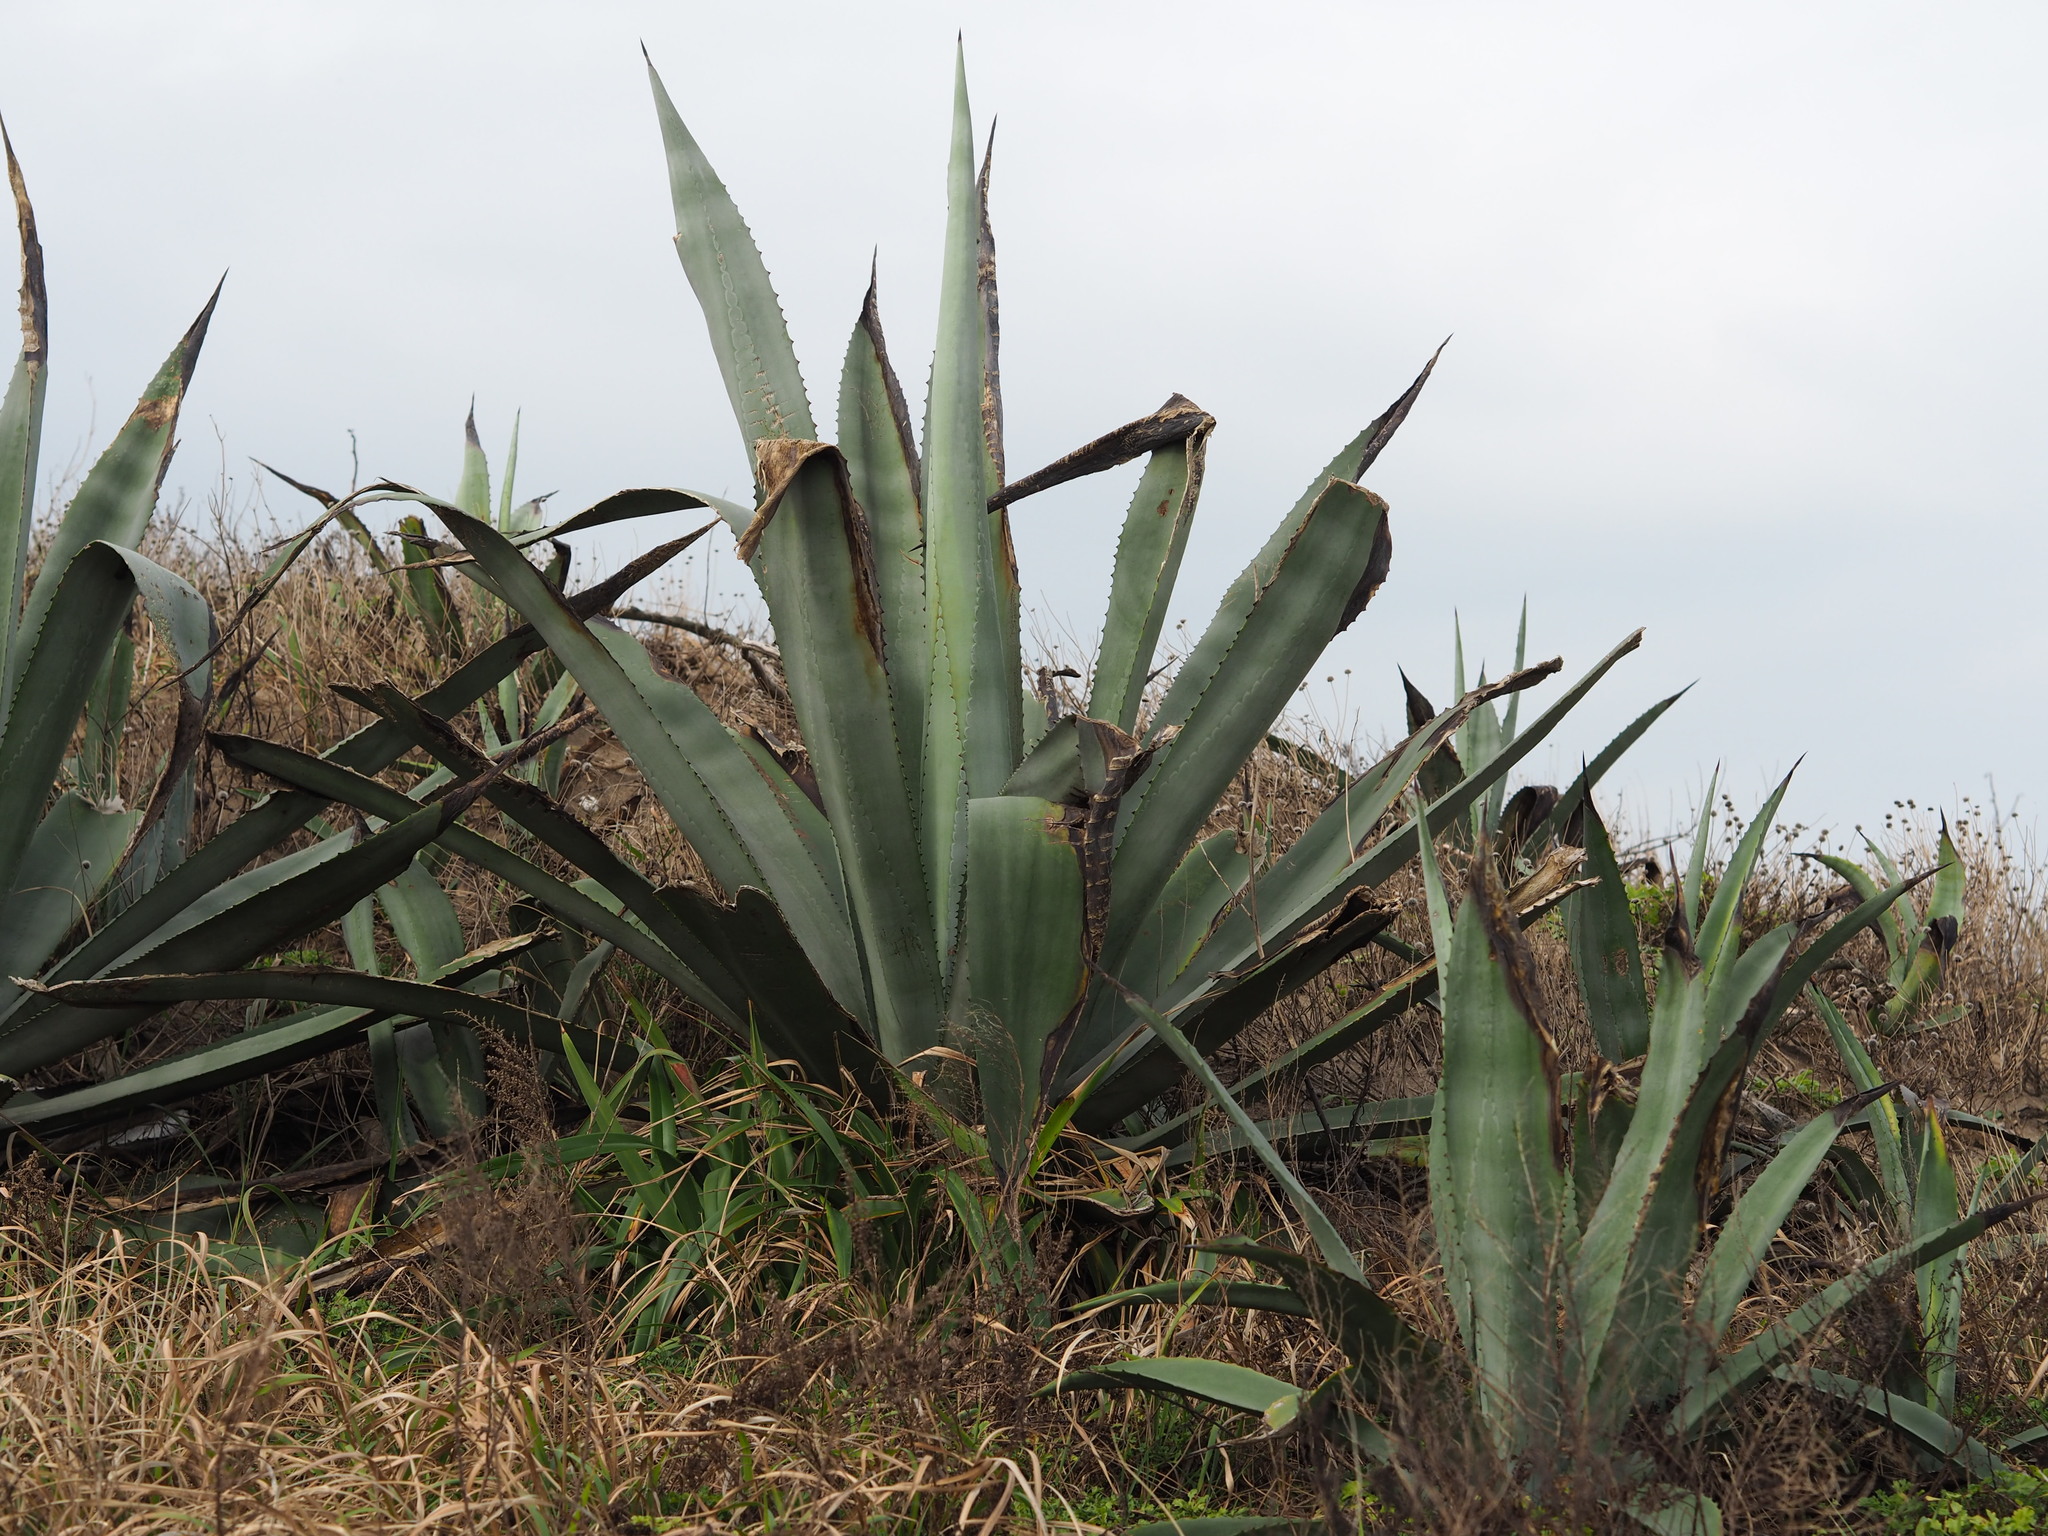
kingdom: Plantae
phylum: Tracheophyta
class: Liliopsida
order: Asparagales
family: Asparagaceae
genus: Agave
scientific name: Agave americana
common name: Centuryplant
